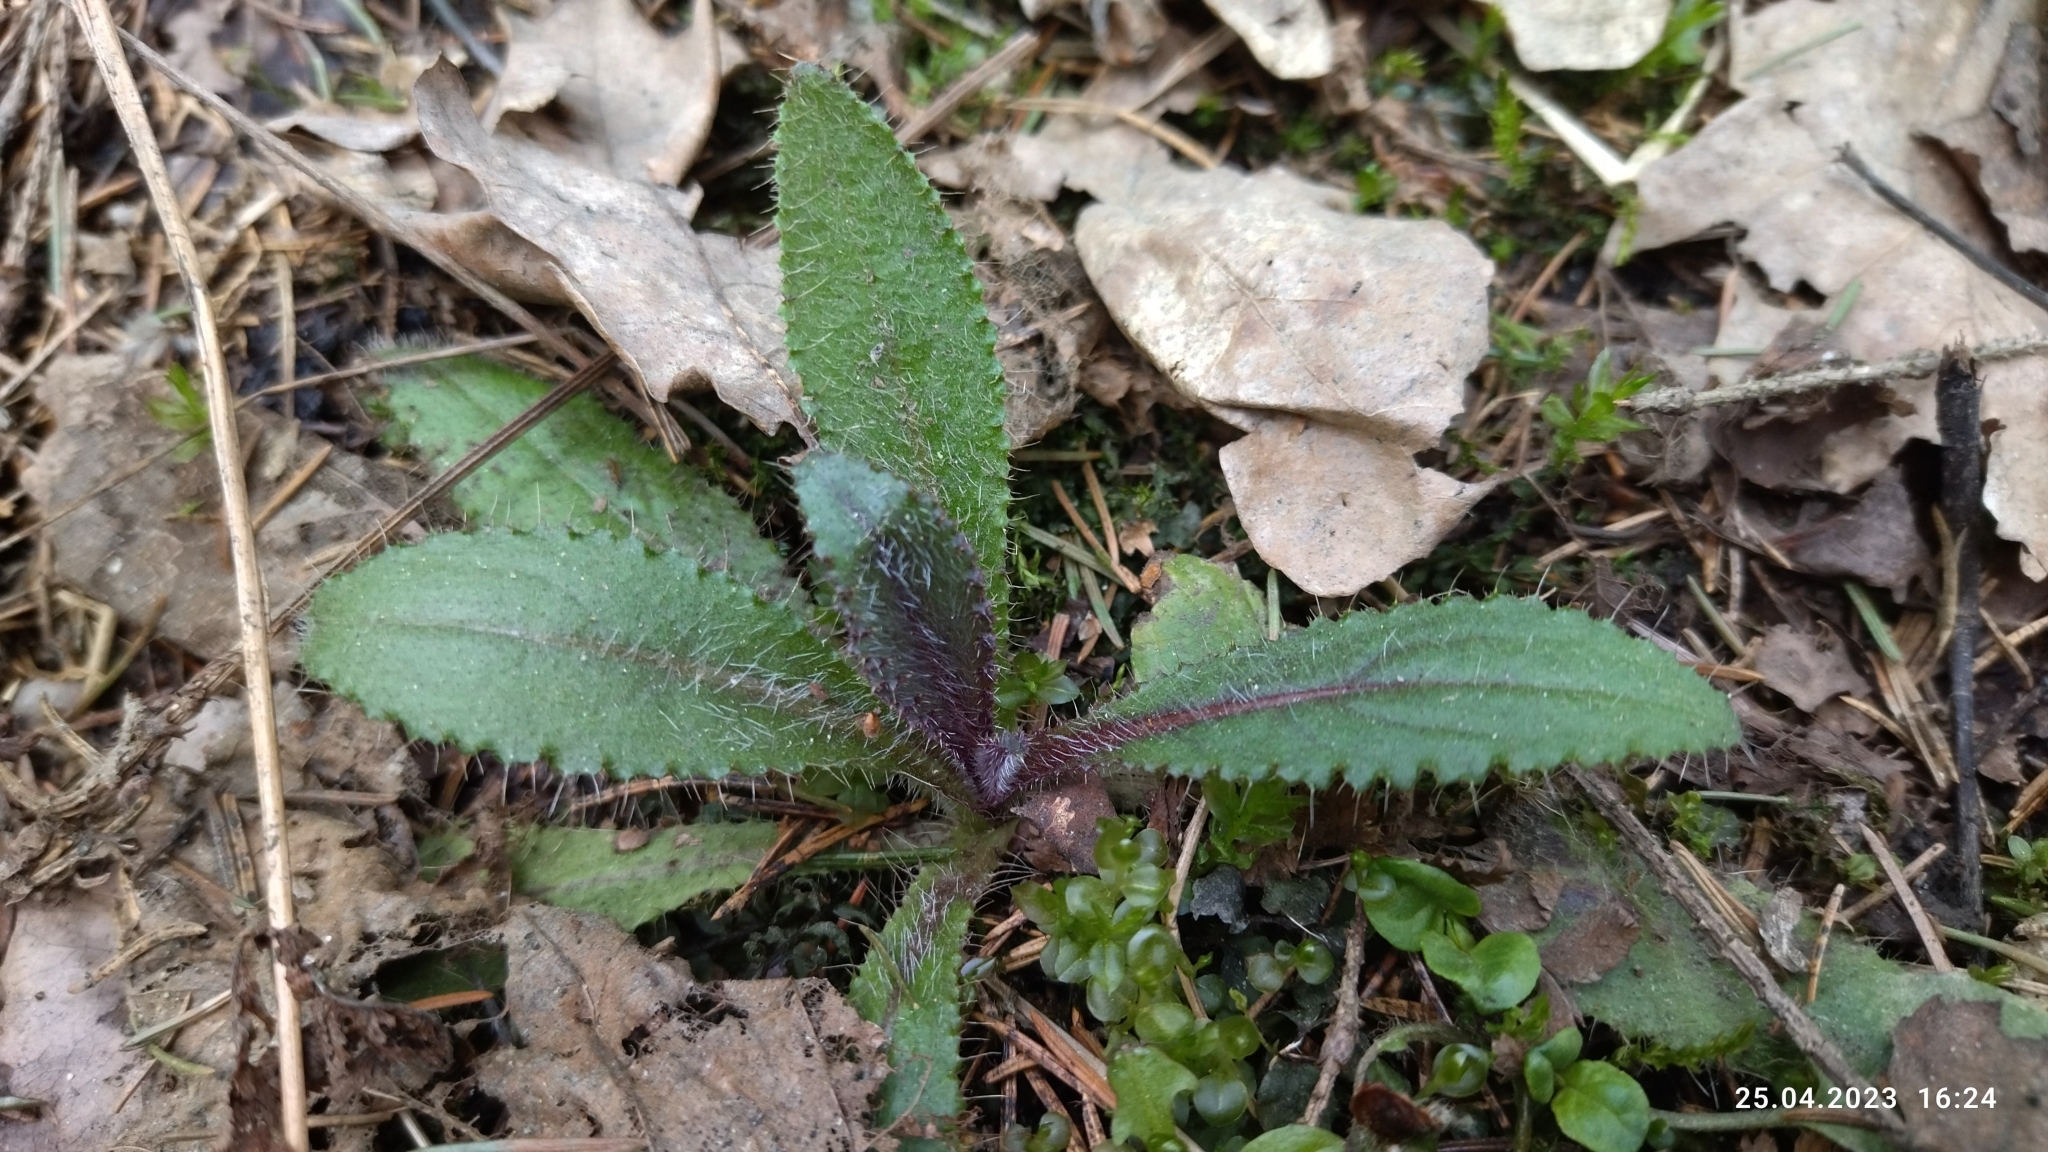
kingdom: Plantae
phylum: Tracheophyta
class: Magnoliopsida
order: Asterales
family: Asteraceae
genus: Cirsium
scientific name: Cirsium palustre
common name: Marsh thistle
